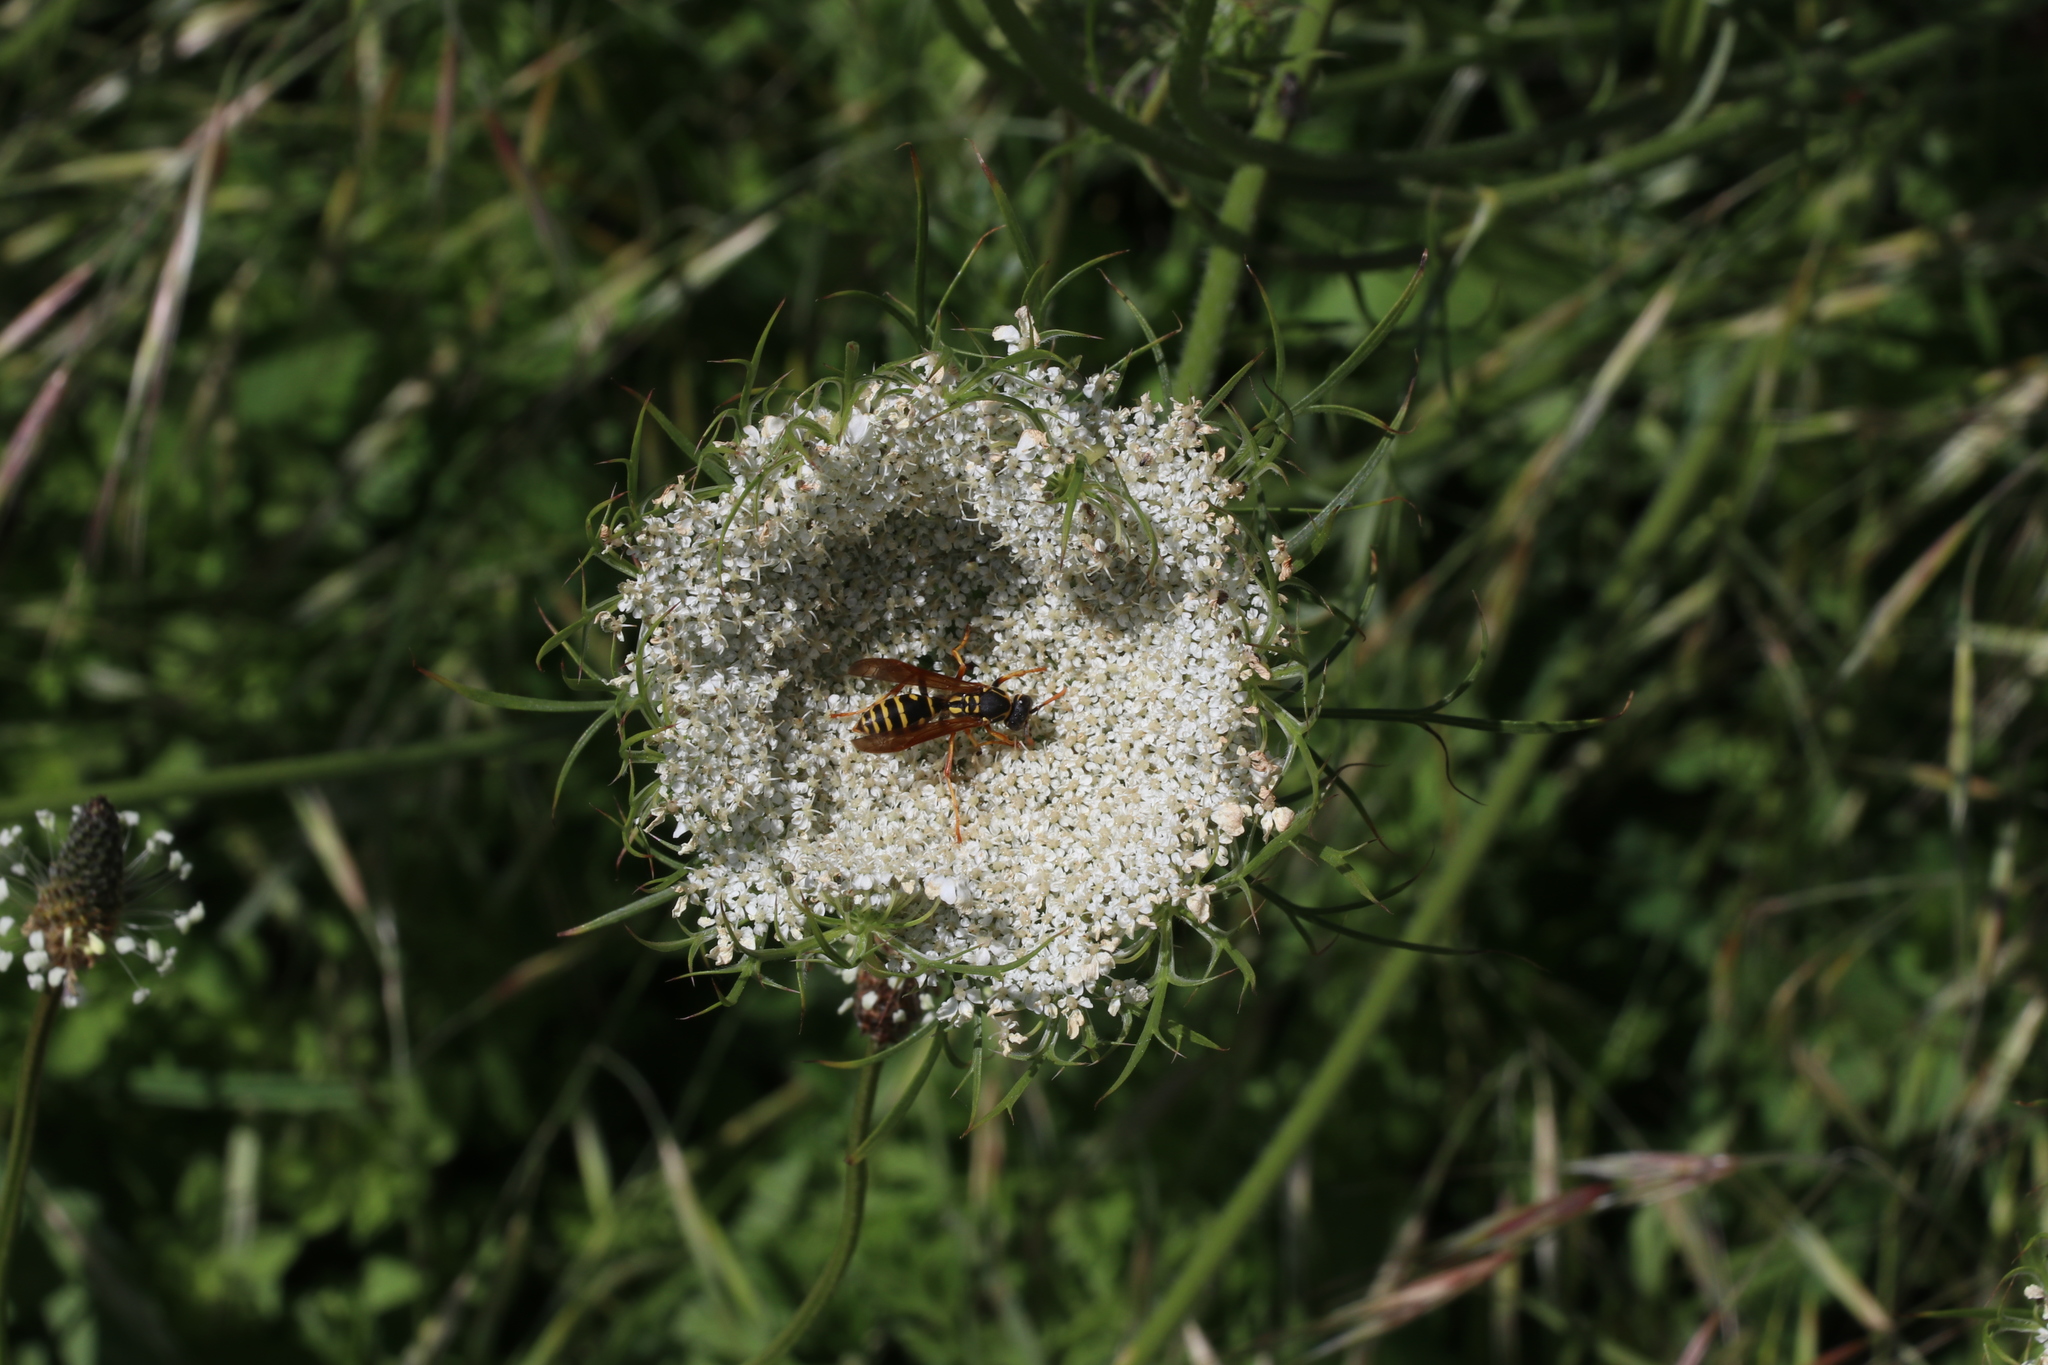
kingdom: Animalia
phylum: Arthropoda
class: Insecta
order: Hymenoptera
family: Eumenidae
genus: Polistes
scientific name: Polistes chinensis
